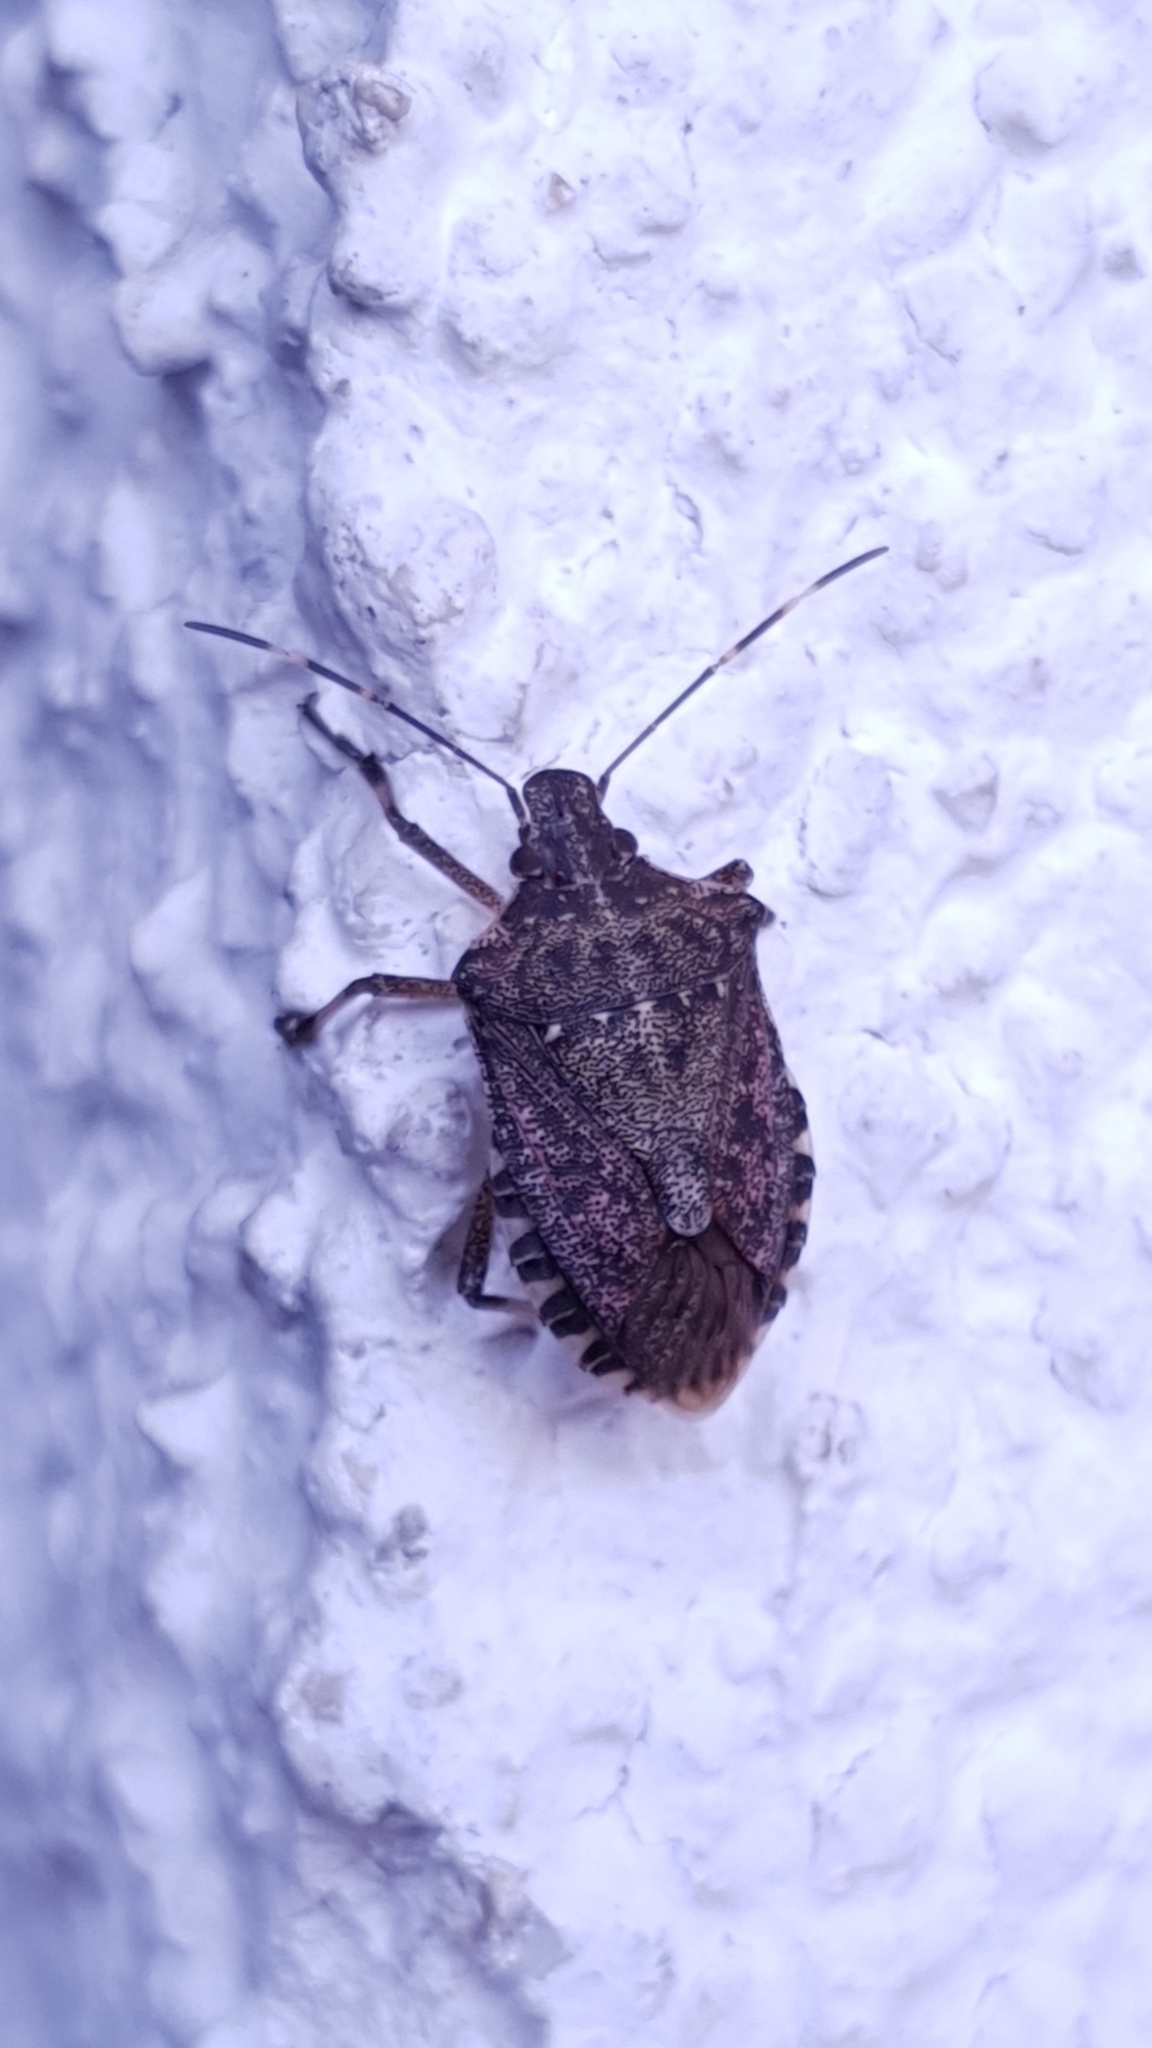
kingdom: Animalia
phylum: Arthropoda
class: Insecta
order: Hemiptera
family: Pentatomidae
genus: Halyomorpha
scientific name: Halyomorpha halys
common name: Brown marmorated stink bug
